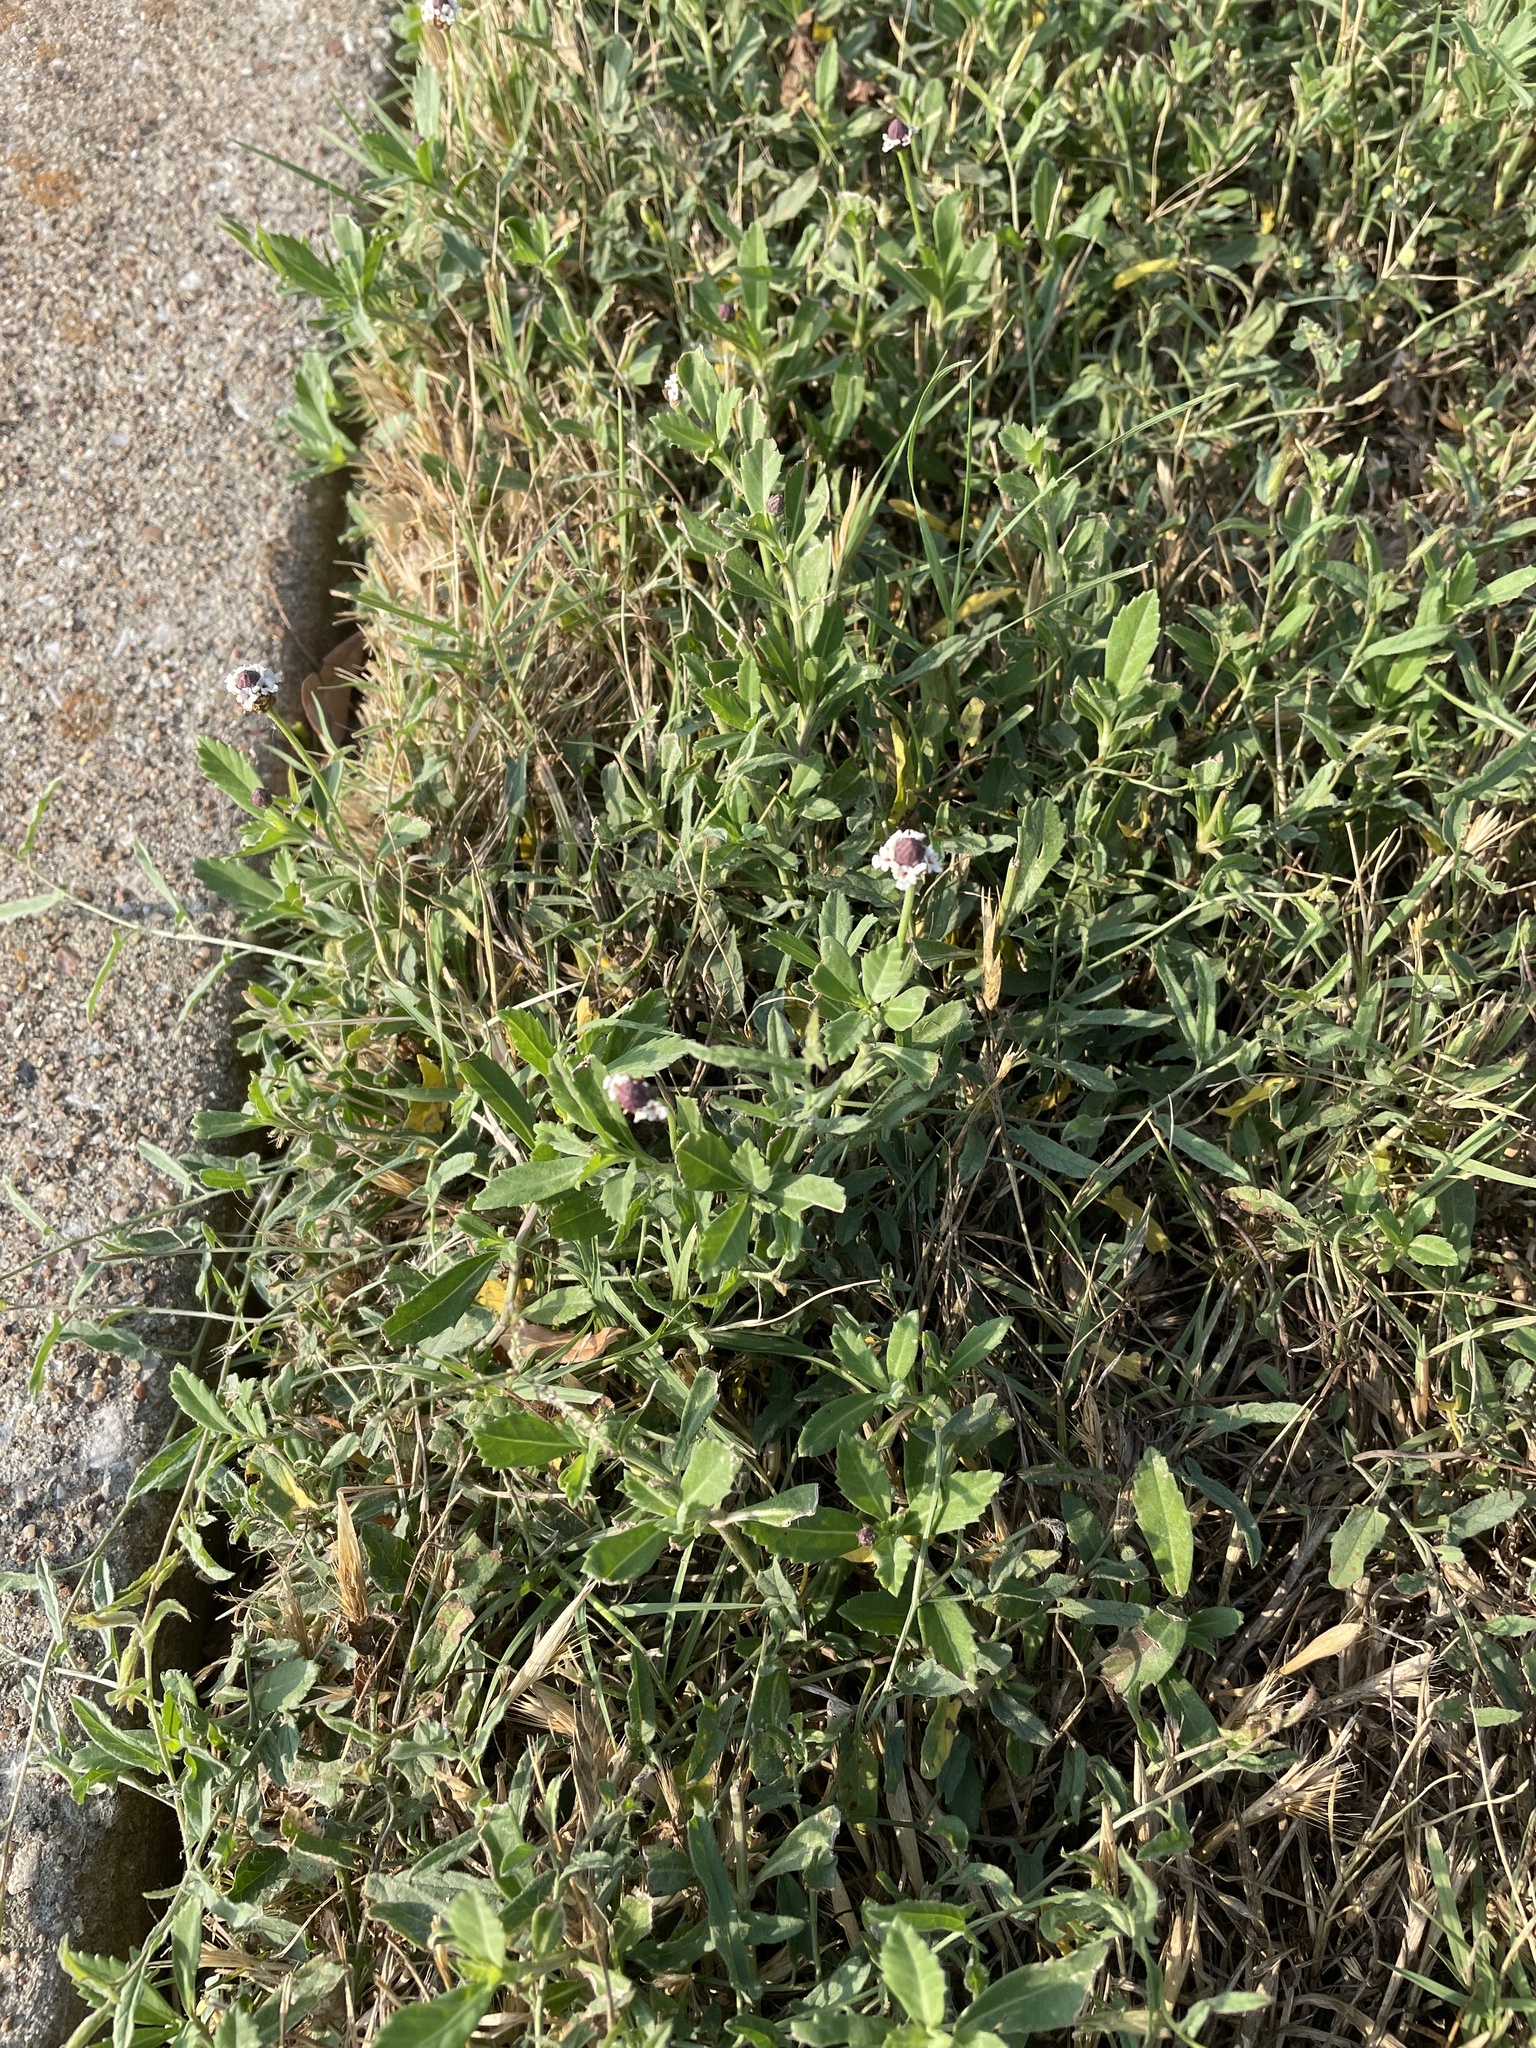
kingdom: Plantae
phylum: Tracheophyta
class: Magnoliopsida
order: Lamiales
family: Verbenaceae
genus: Phyla
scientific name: Phyla nodiflora
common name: Frogfruit
